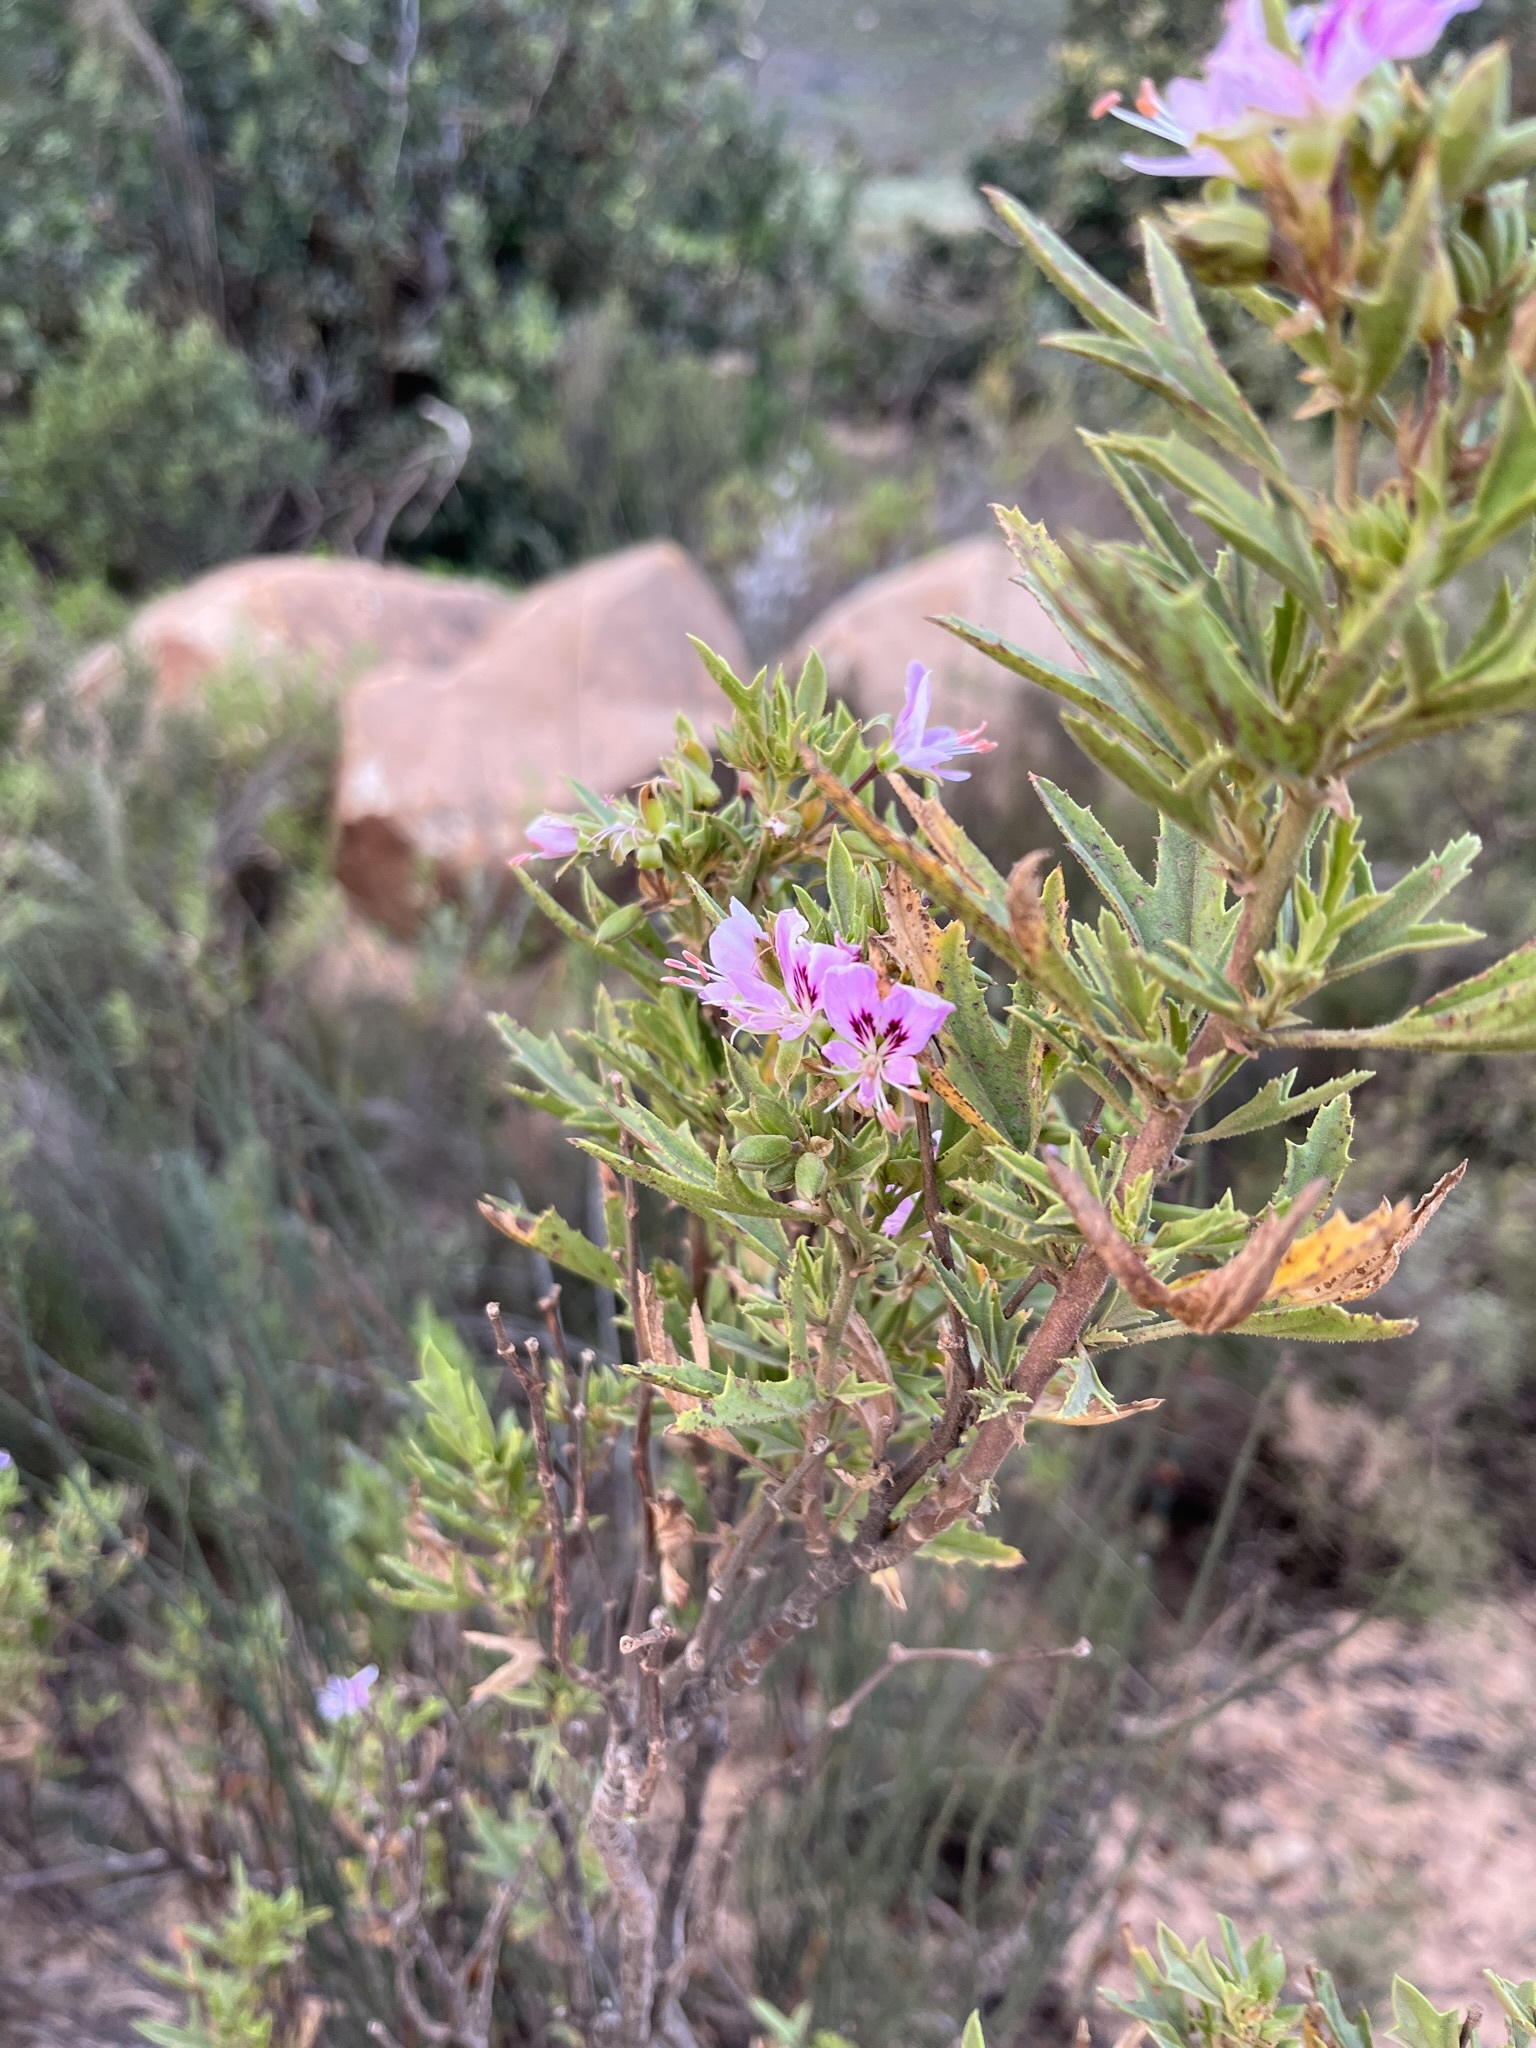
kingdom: Plantae
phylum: Tracheophyta
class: Magnoliopsida
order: Geraniales
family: Geraniaceae
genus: Pelargonium
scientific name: Pelargonium scabrum
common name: Apricot geranium
